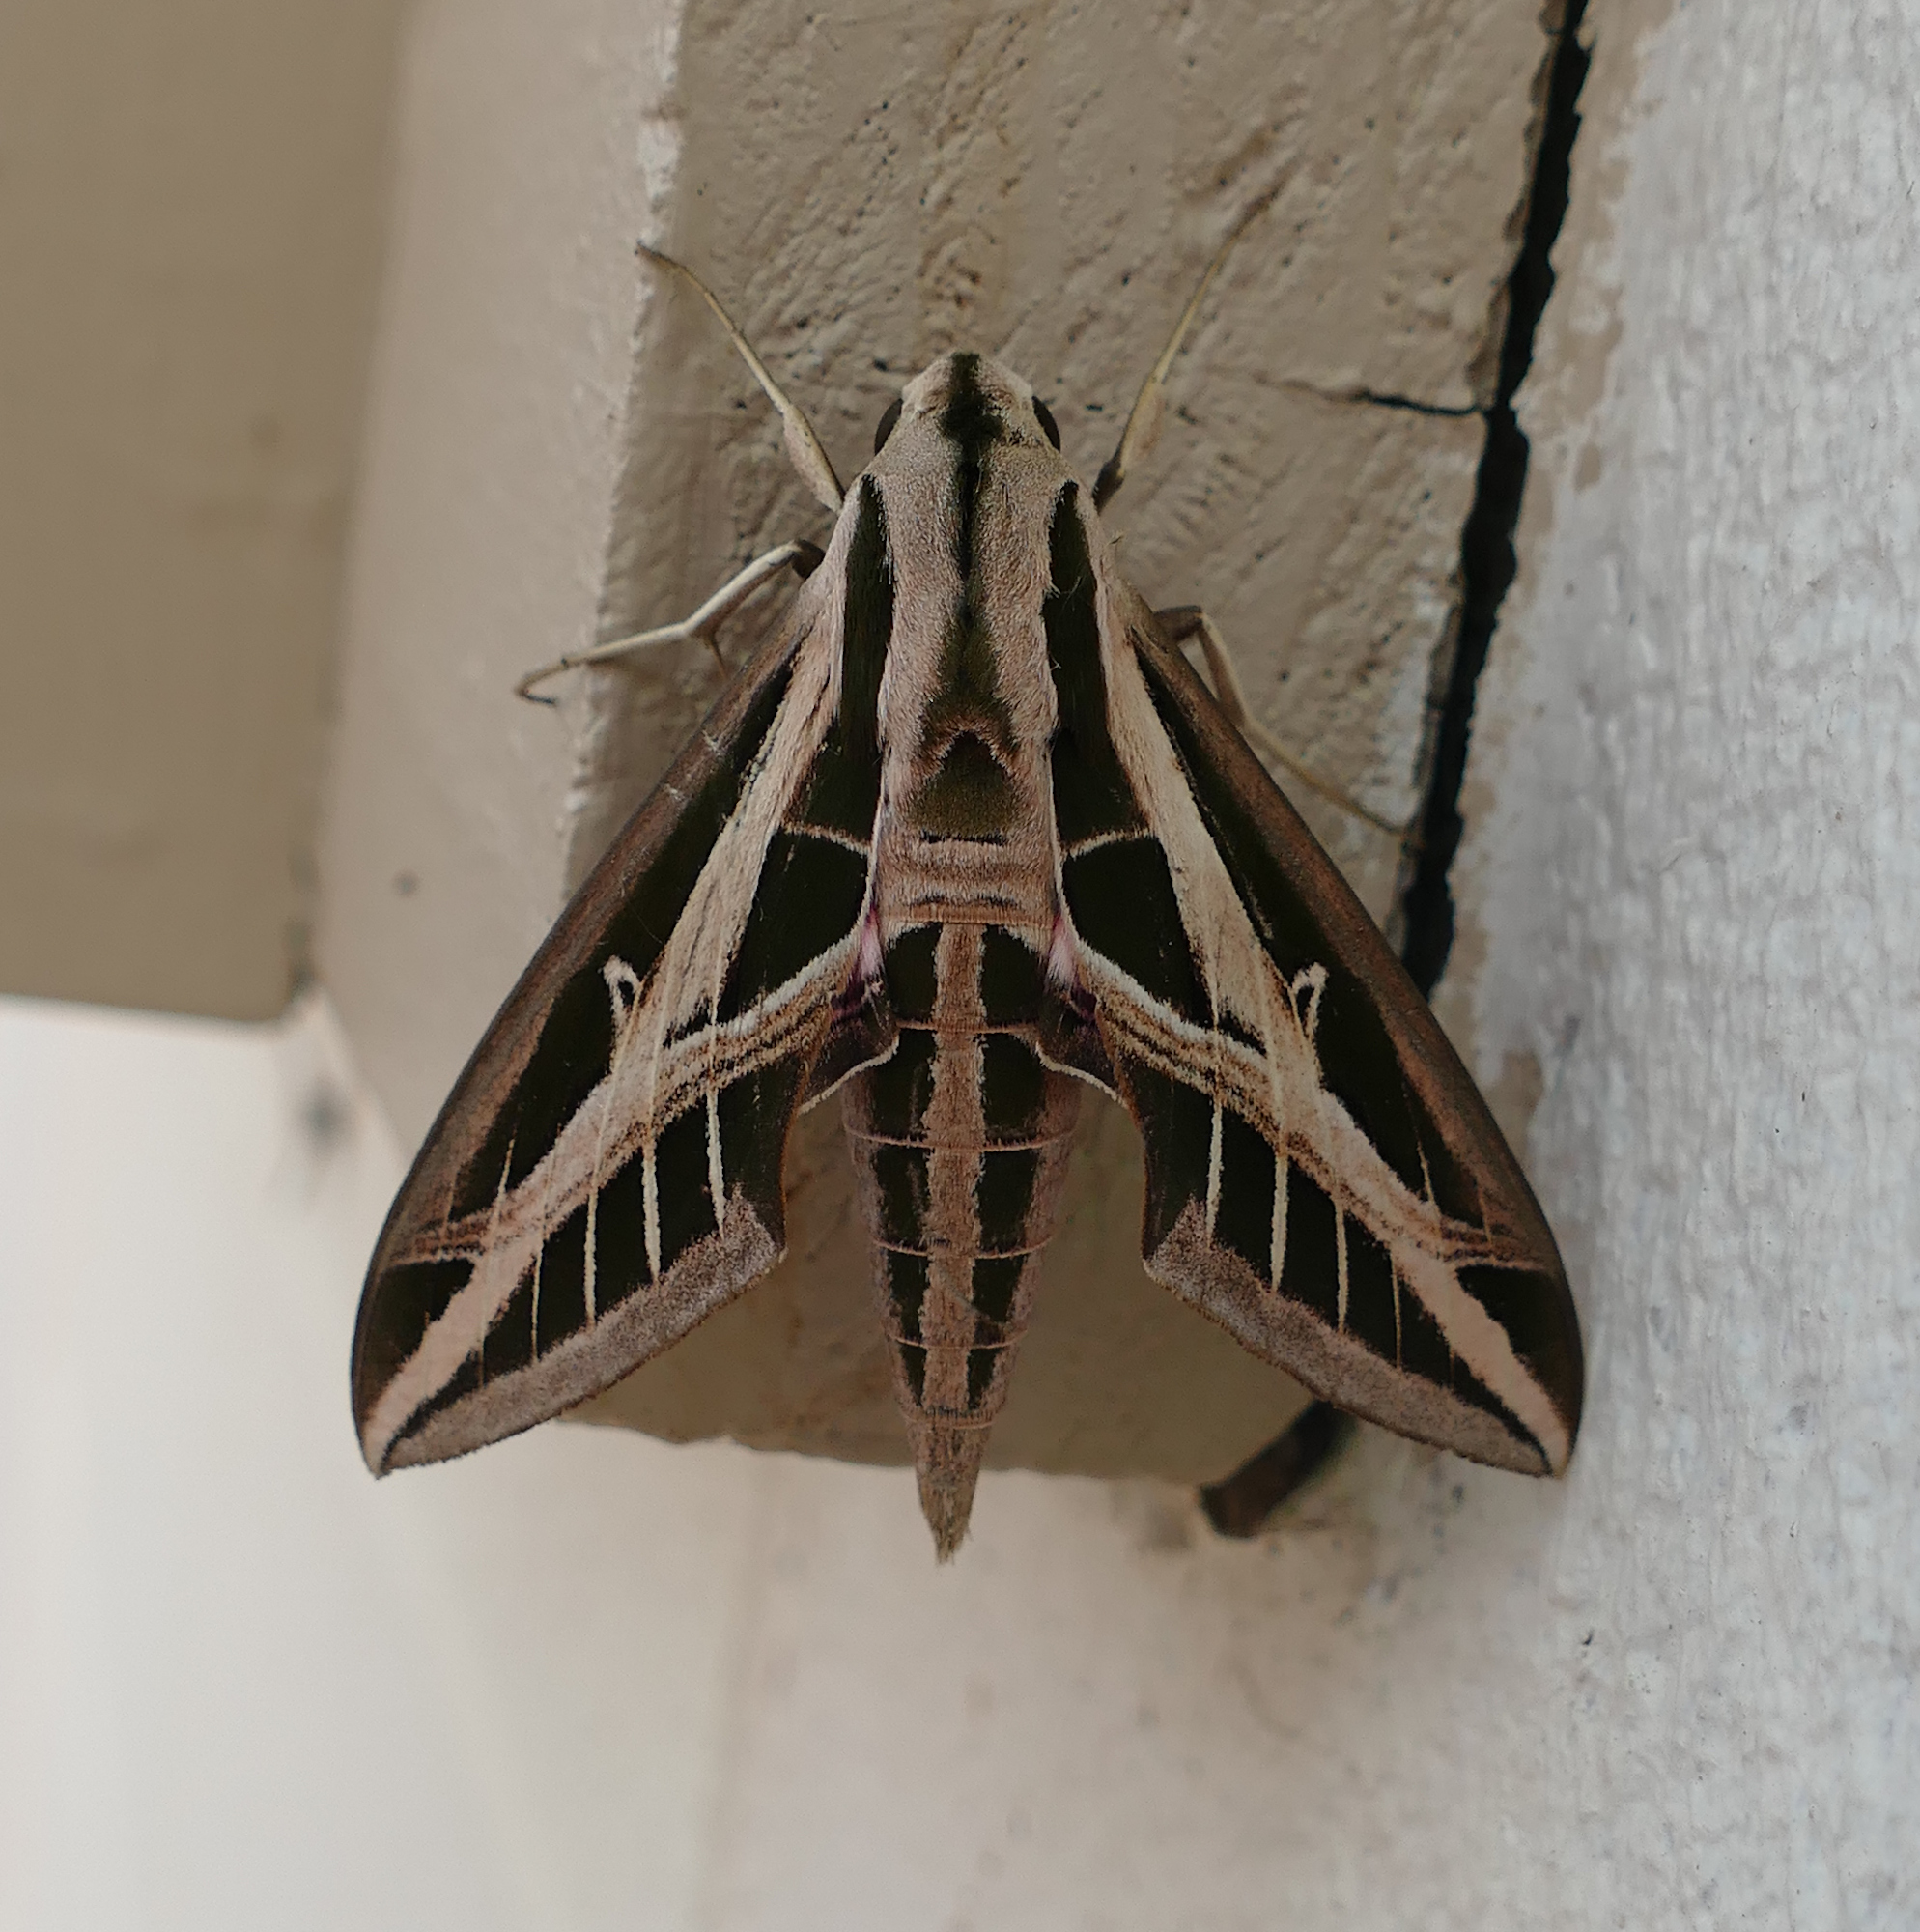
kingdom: Animalia
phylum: Arthropoda
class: Insecta
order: Lepidoptera
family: Sphingidae
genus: Eumorpha
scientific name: Eumorpha fasciatus
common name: Banded sphinx
